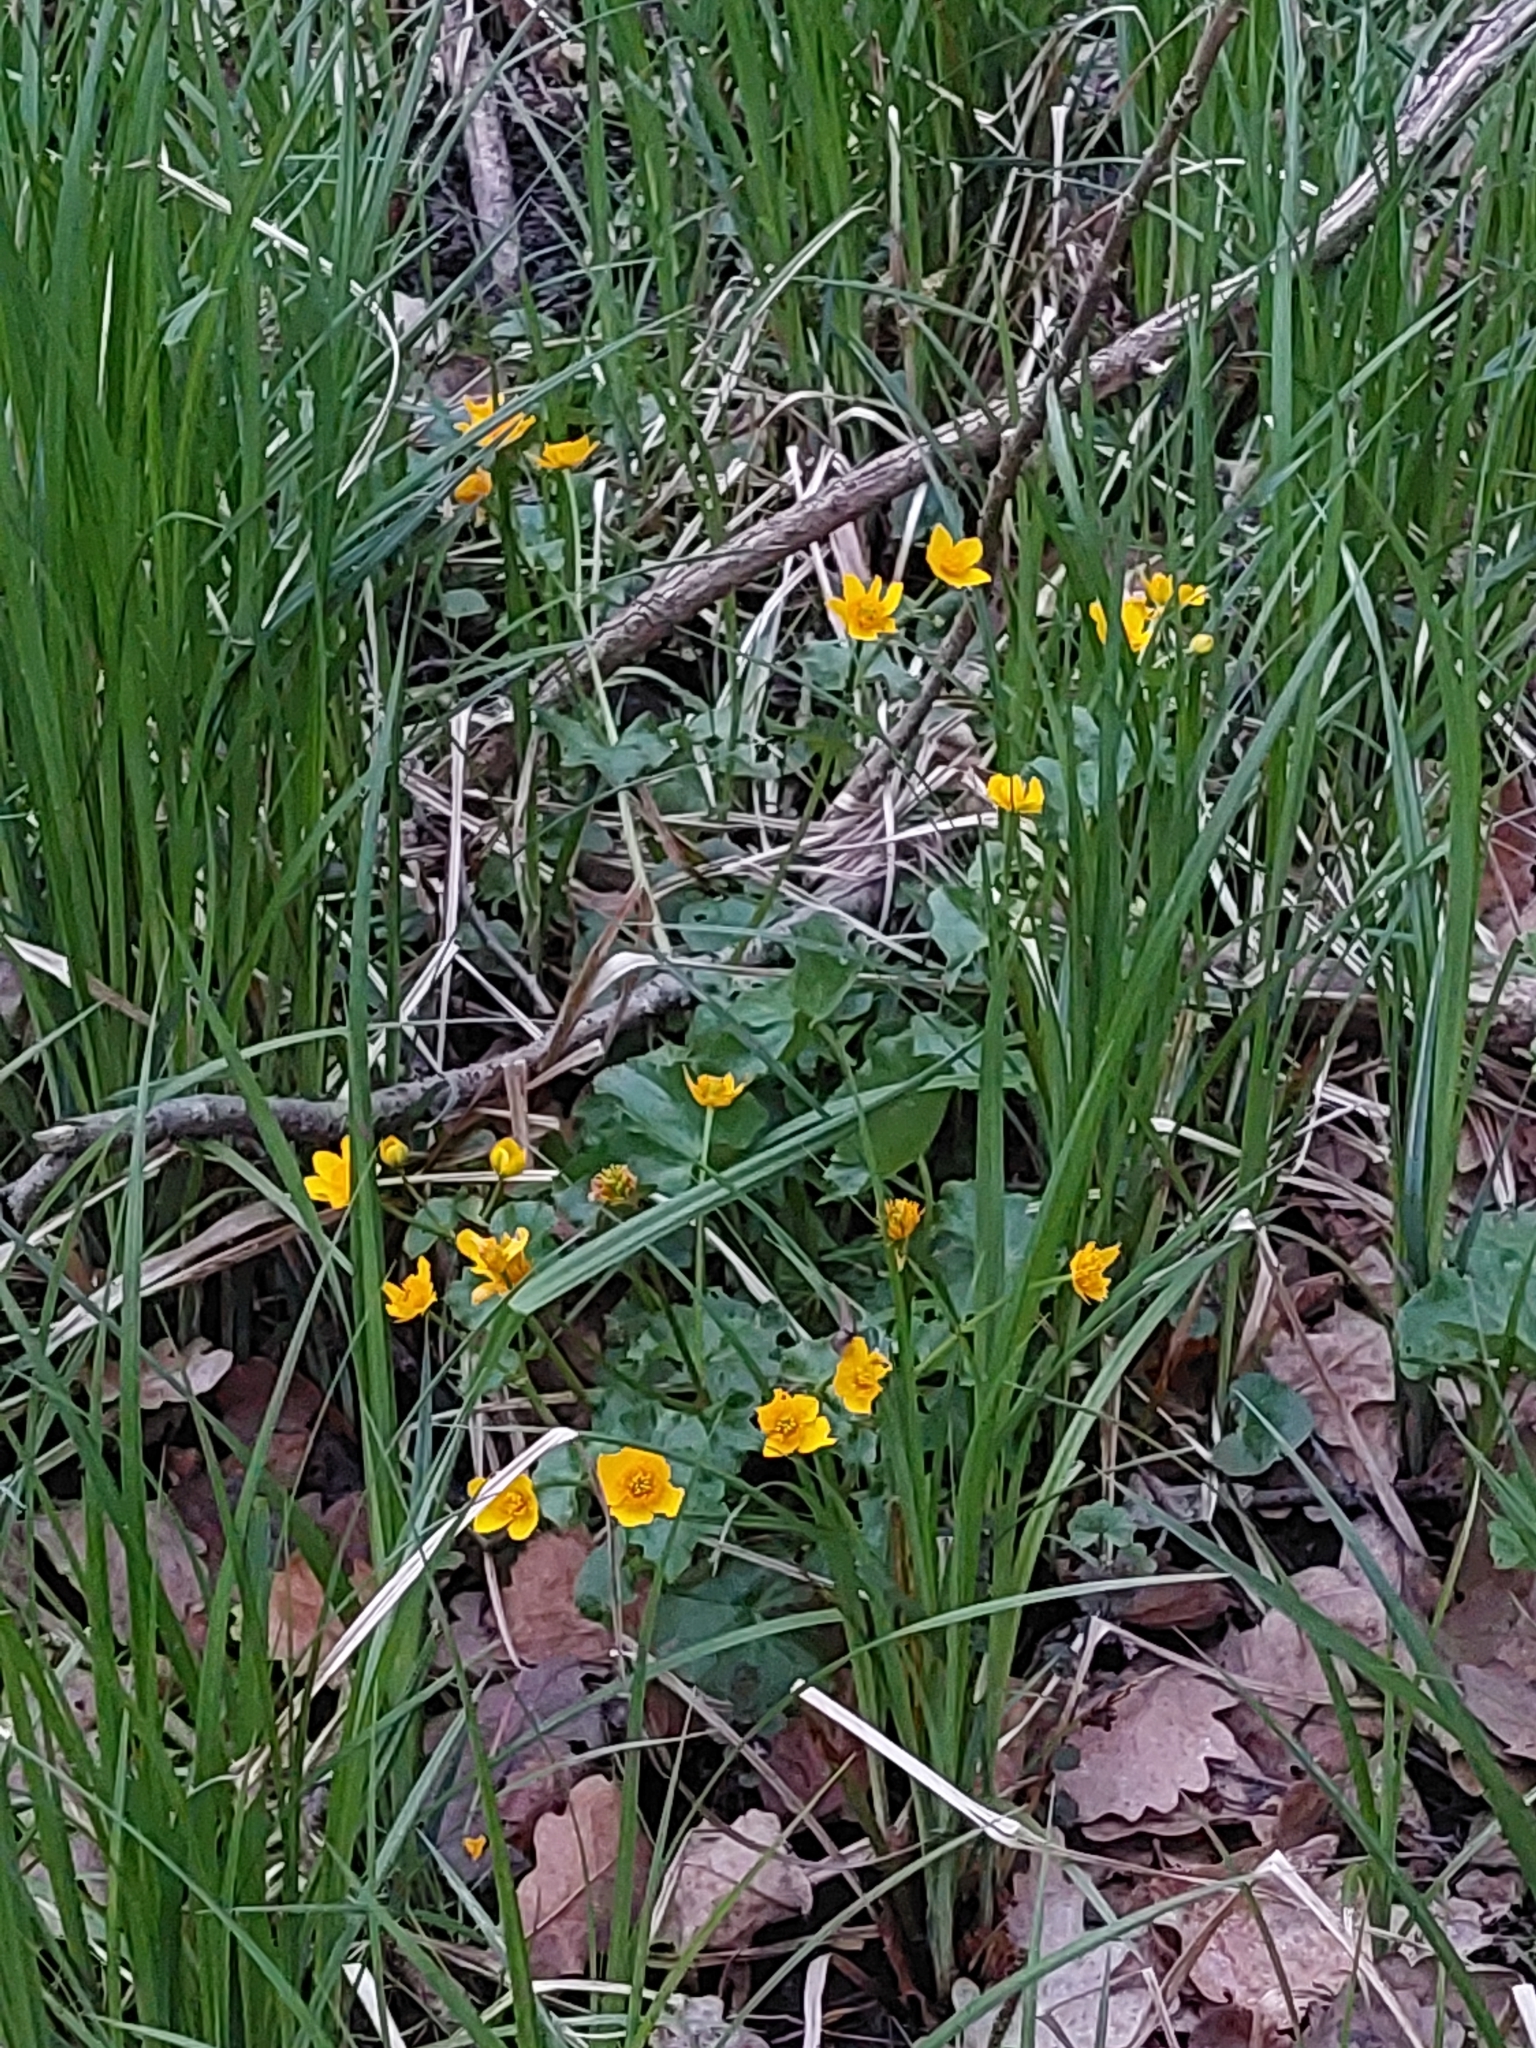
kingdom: Plantae
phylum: Tracheophyta
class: Magnoliopsida
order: Ranunculales
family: Ranunculaceae
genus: Caltha
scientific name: Caltha palustris
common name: Marsh marigold
